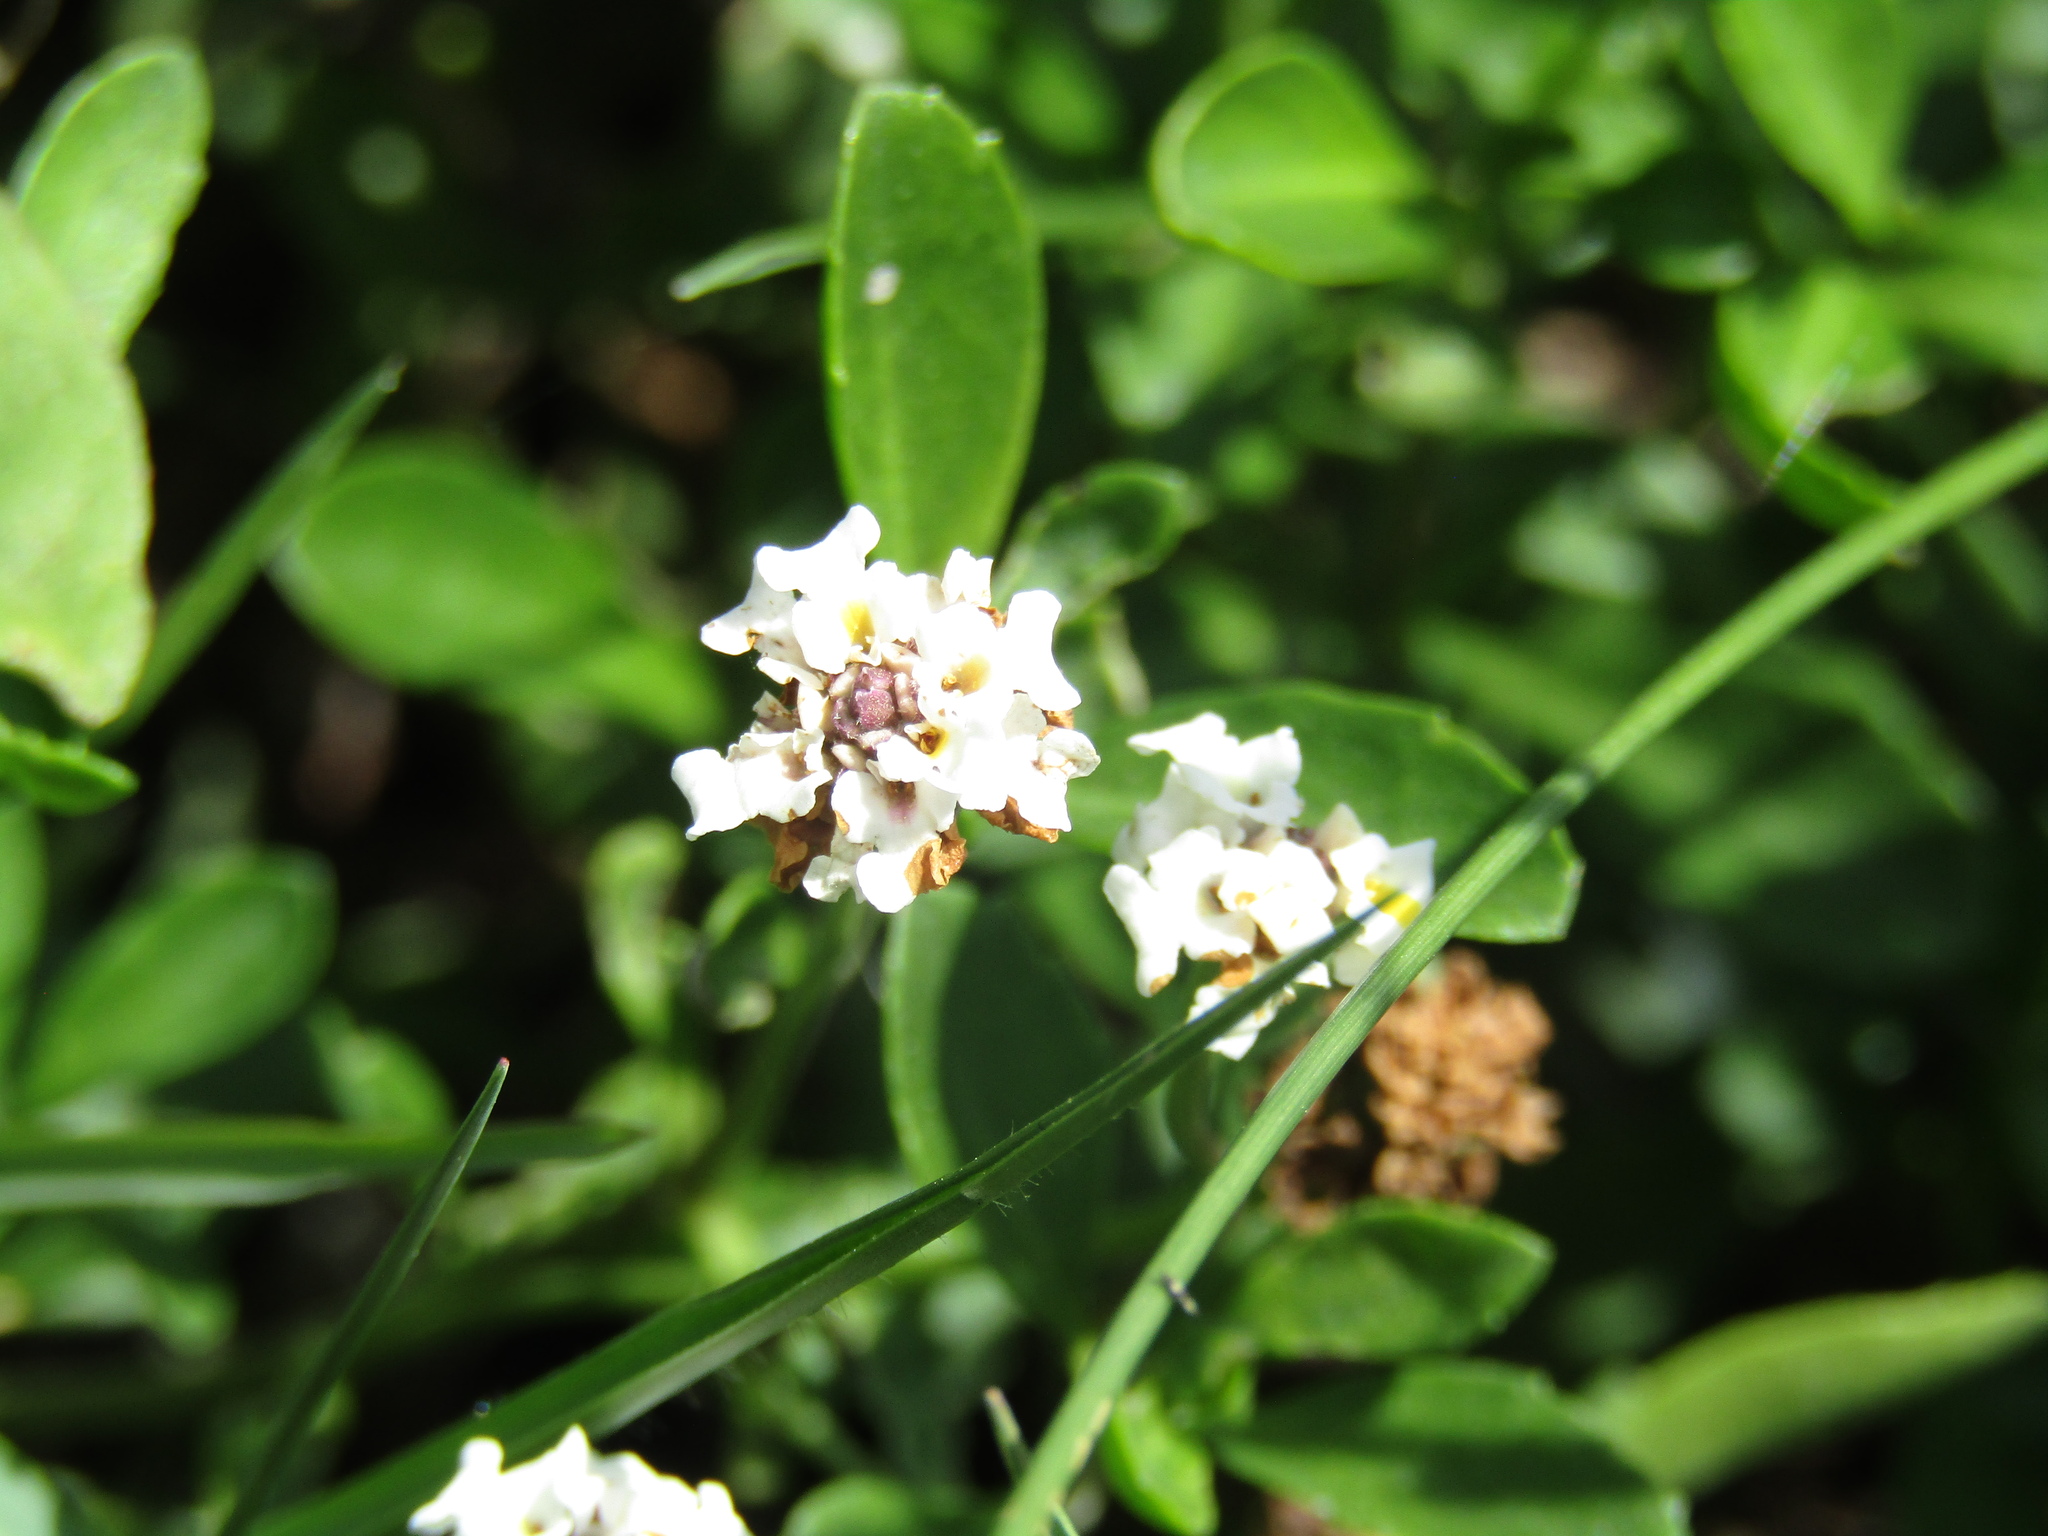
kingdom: Plantae
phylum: Tracheophyta
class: Magnoliopsida
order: Lamiales
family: Verbenaceae
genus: Phyla
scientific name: Phyla nodiflora
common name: Frogfruit
